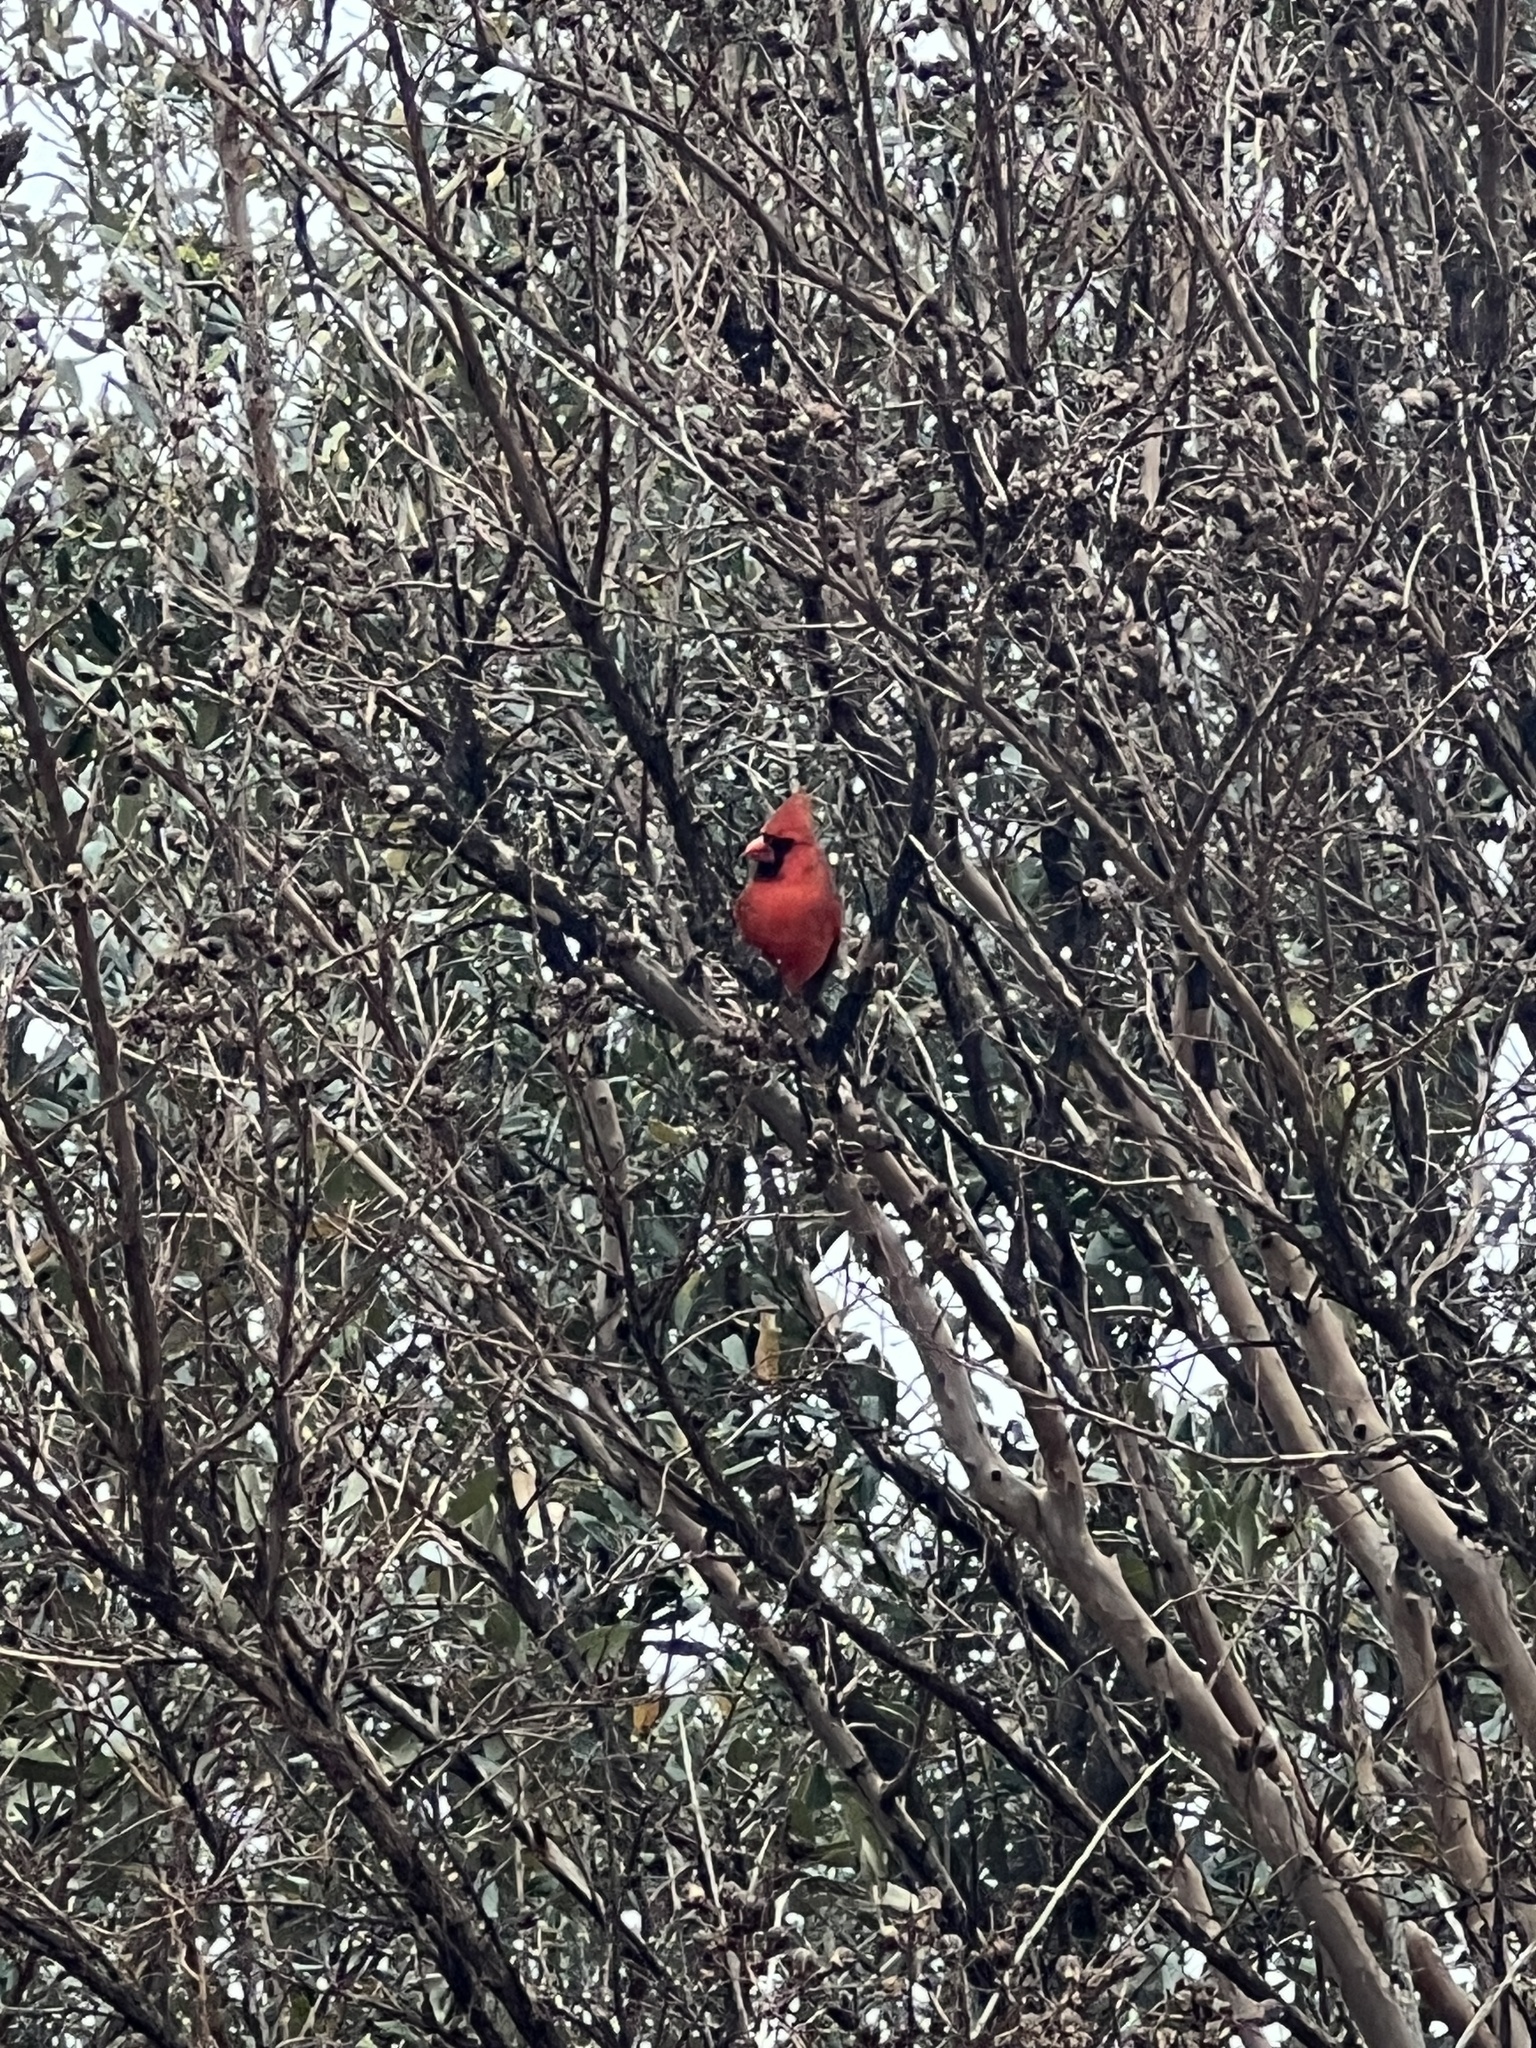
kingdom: Animalia
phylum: Chordata
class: Aves
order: Passeriformes
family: Cardinalidae
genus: Cardinalis
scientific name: Cardinalis cardinalis
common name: Northern cardinal
